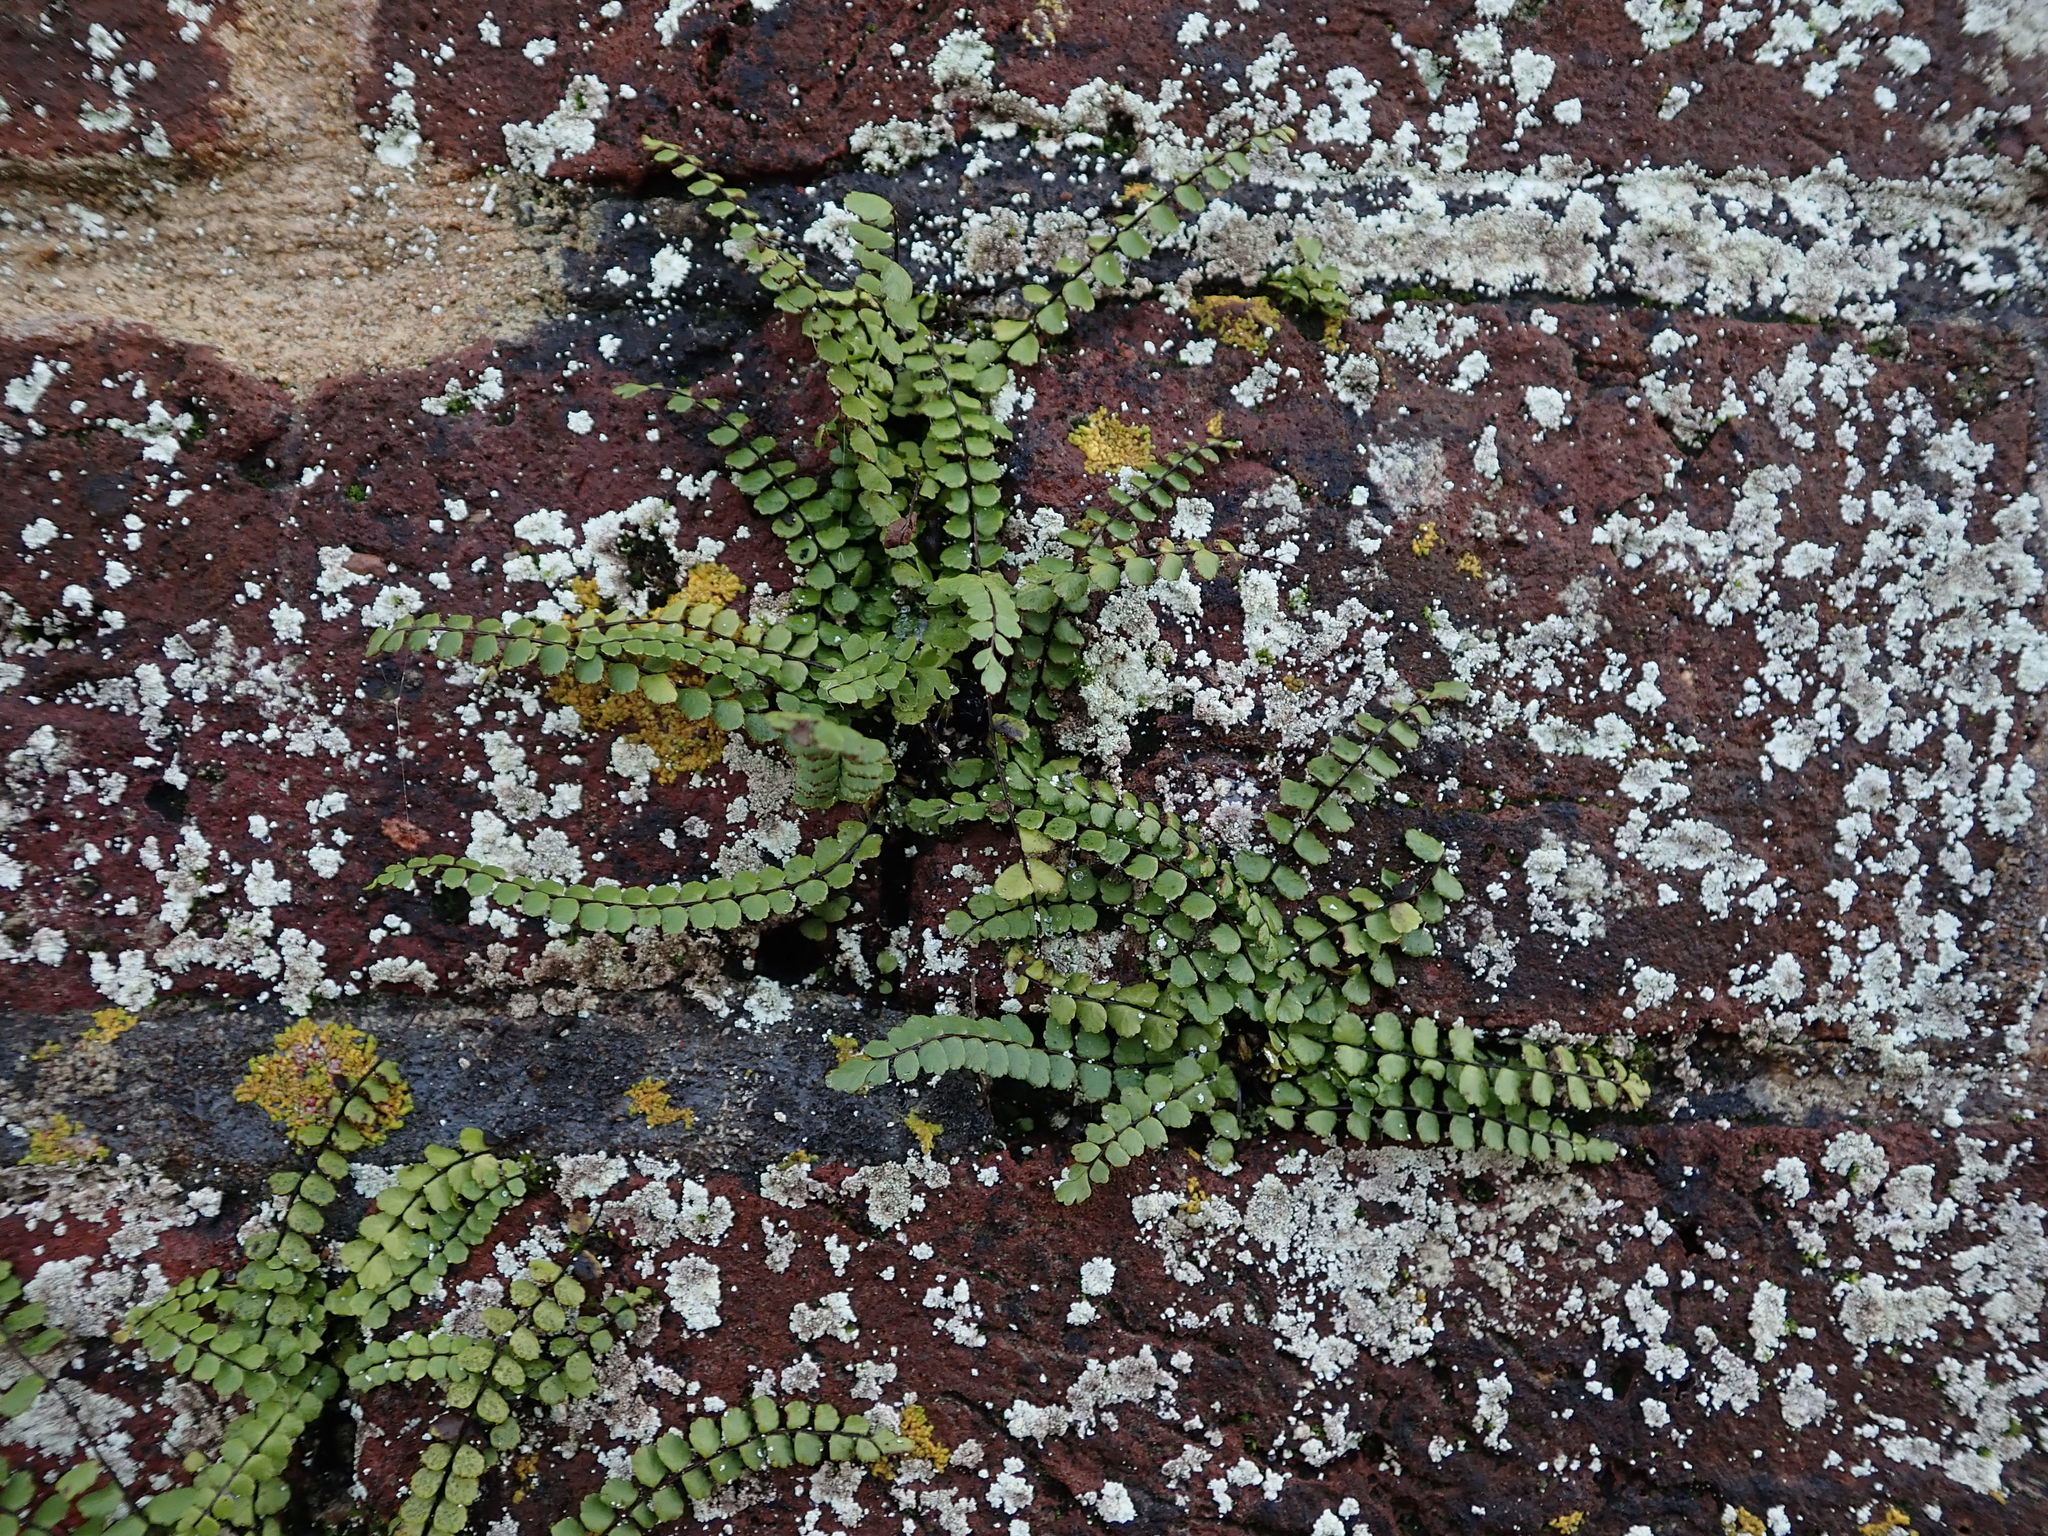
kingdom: Plantae
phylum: Tracheophyta
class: Polypodiopsida
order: Polypodiales
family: Aspleniaceae
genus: Asplenium
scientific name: Asplenium trichomanes
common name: Maidenhair spleenwort
